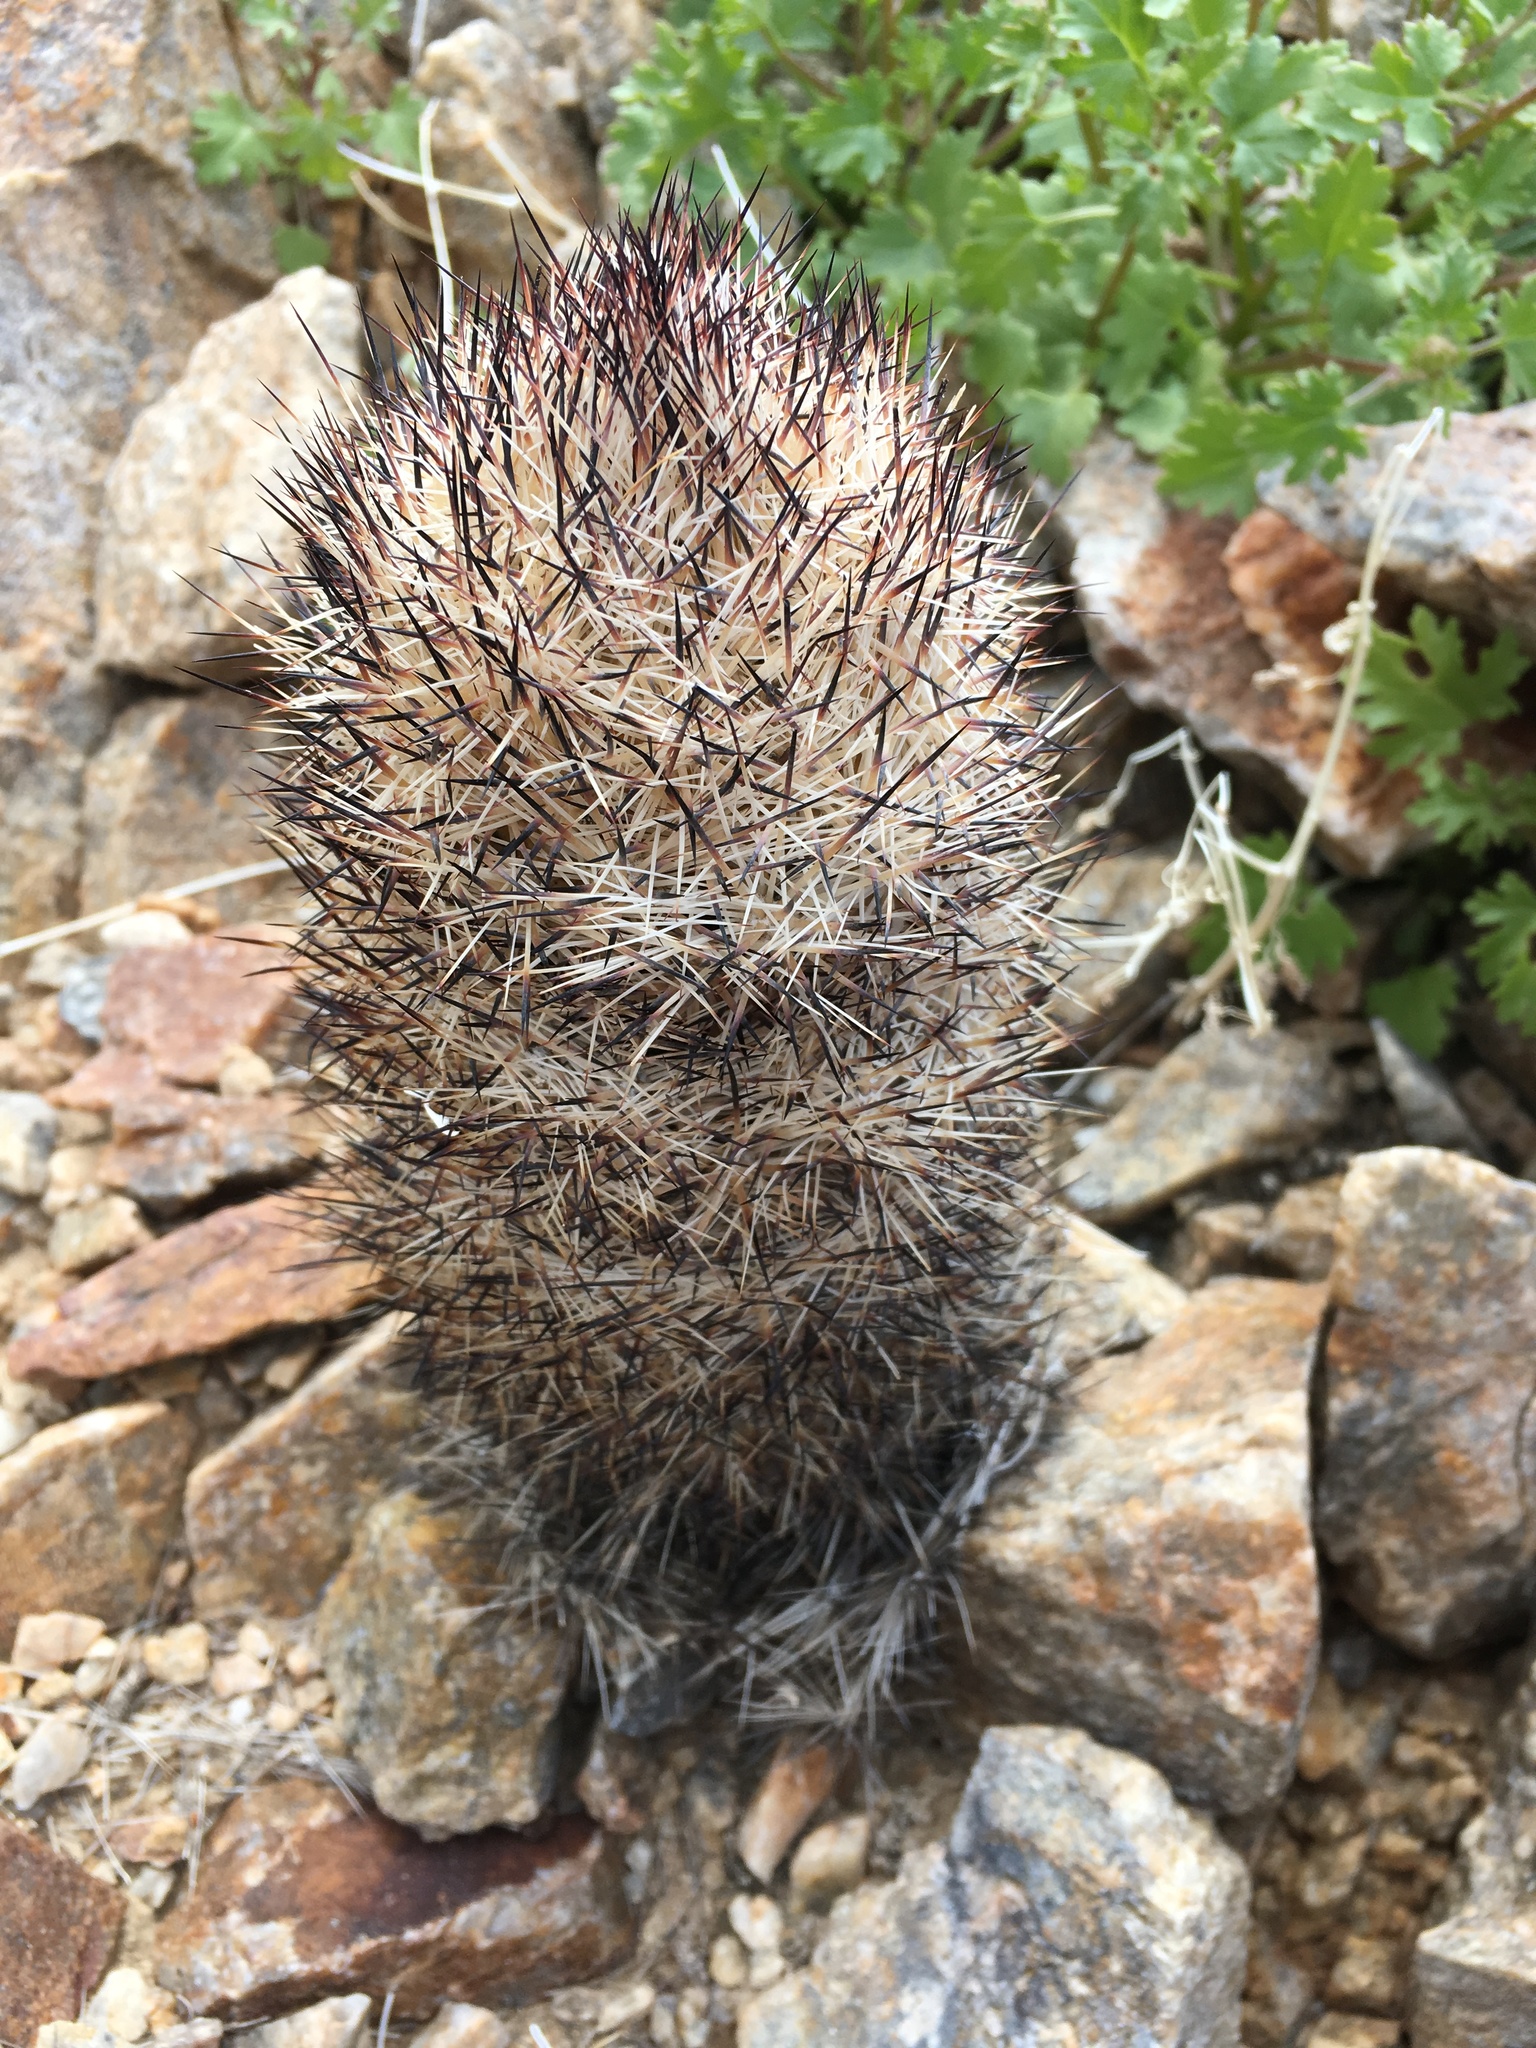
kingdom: Plantae
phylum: Tracheophyta
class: Magnoliopsida
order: Caryophyllales
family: Cactaceae
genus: Pelecyphora
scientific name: Pelecyphora alversonii
